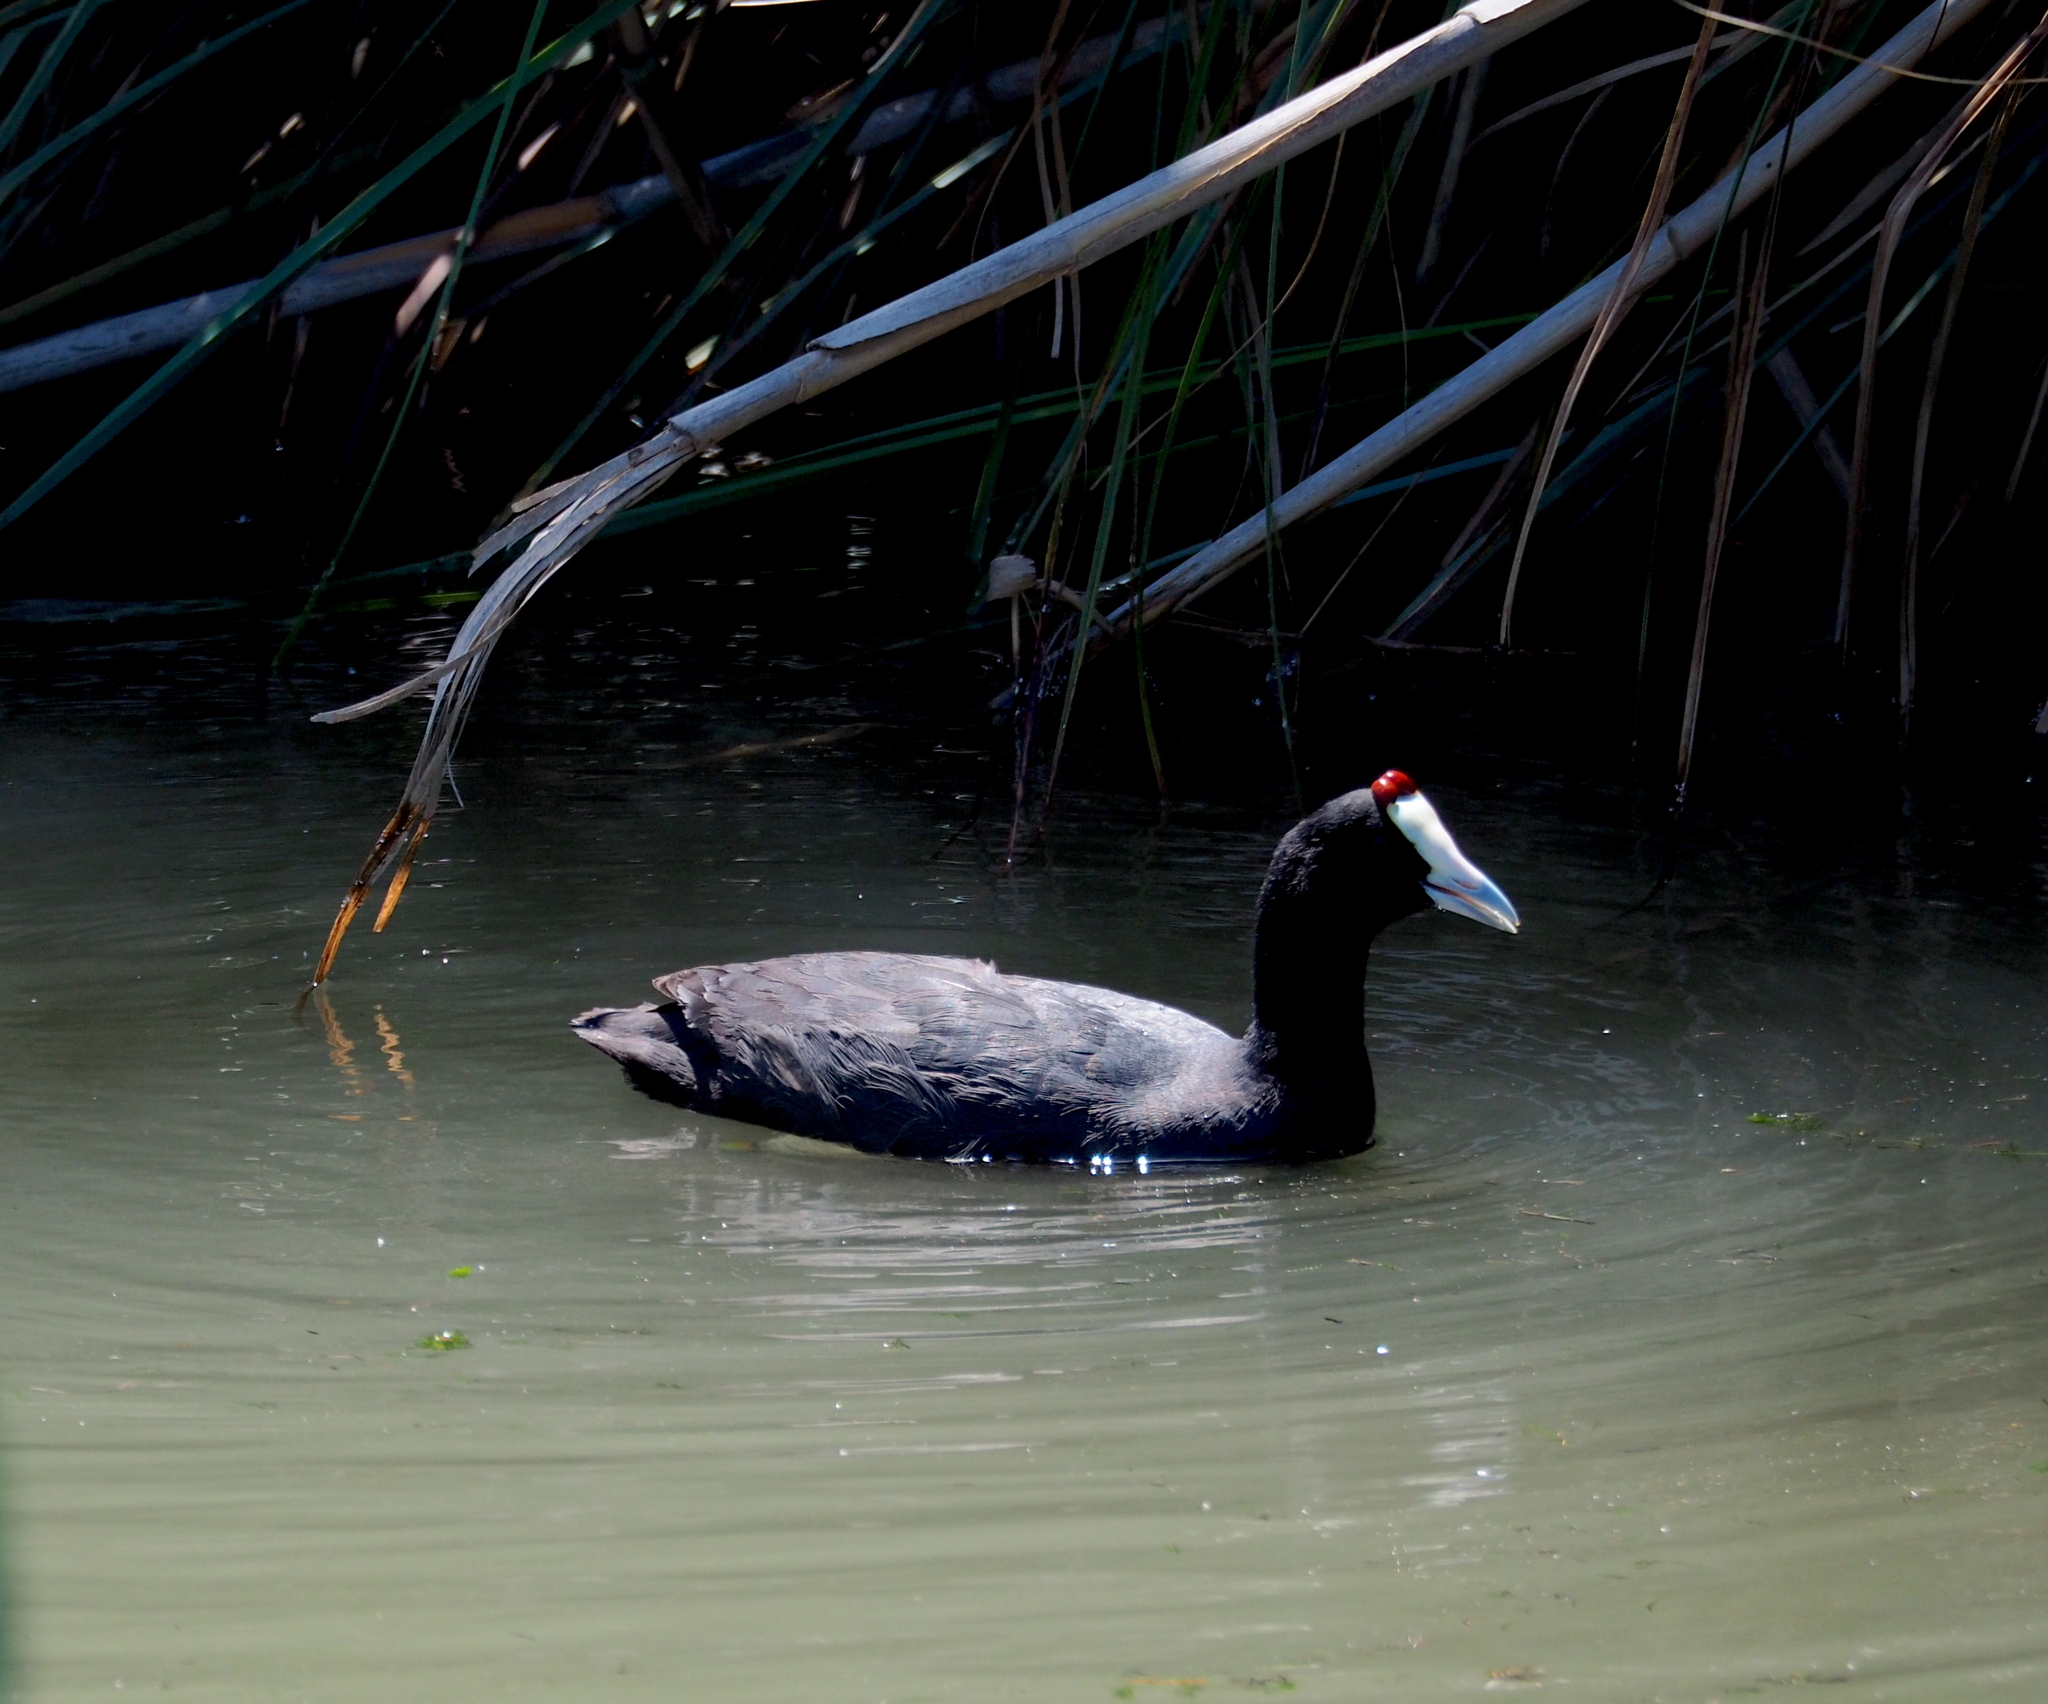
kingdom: Animalia
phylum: Chordata
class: Aves
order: Gruiformes
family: Rallidae
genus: Fulica
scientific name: Fulica cristata
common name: Red-knobbed coot
